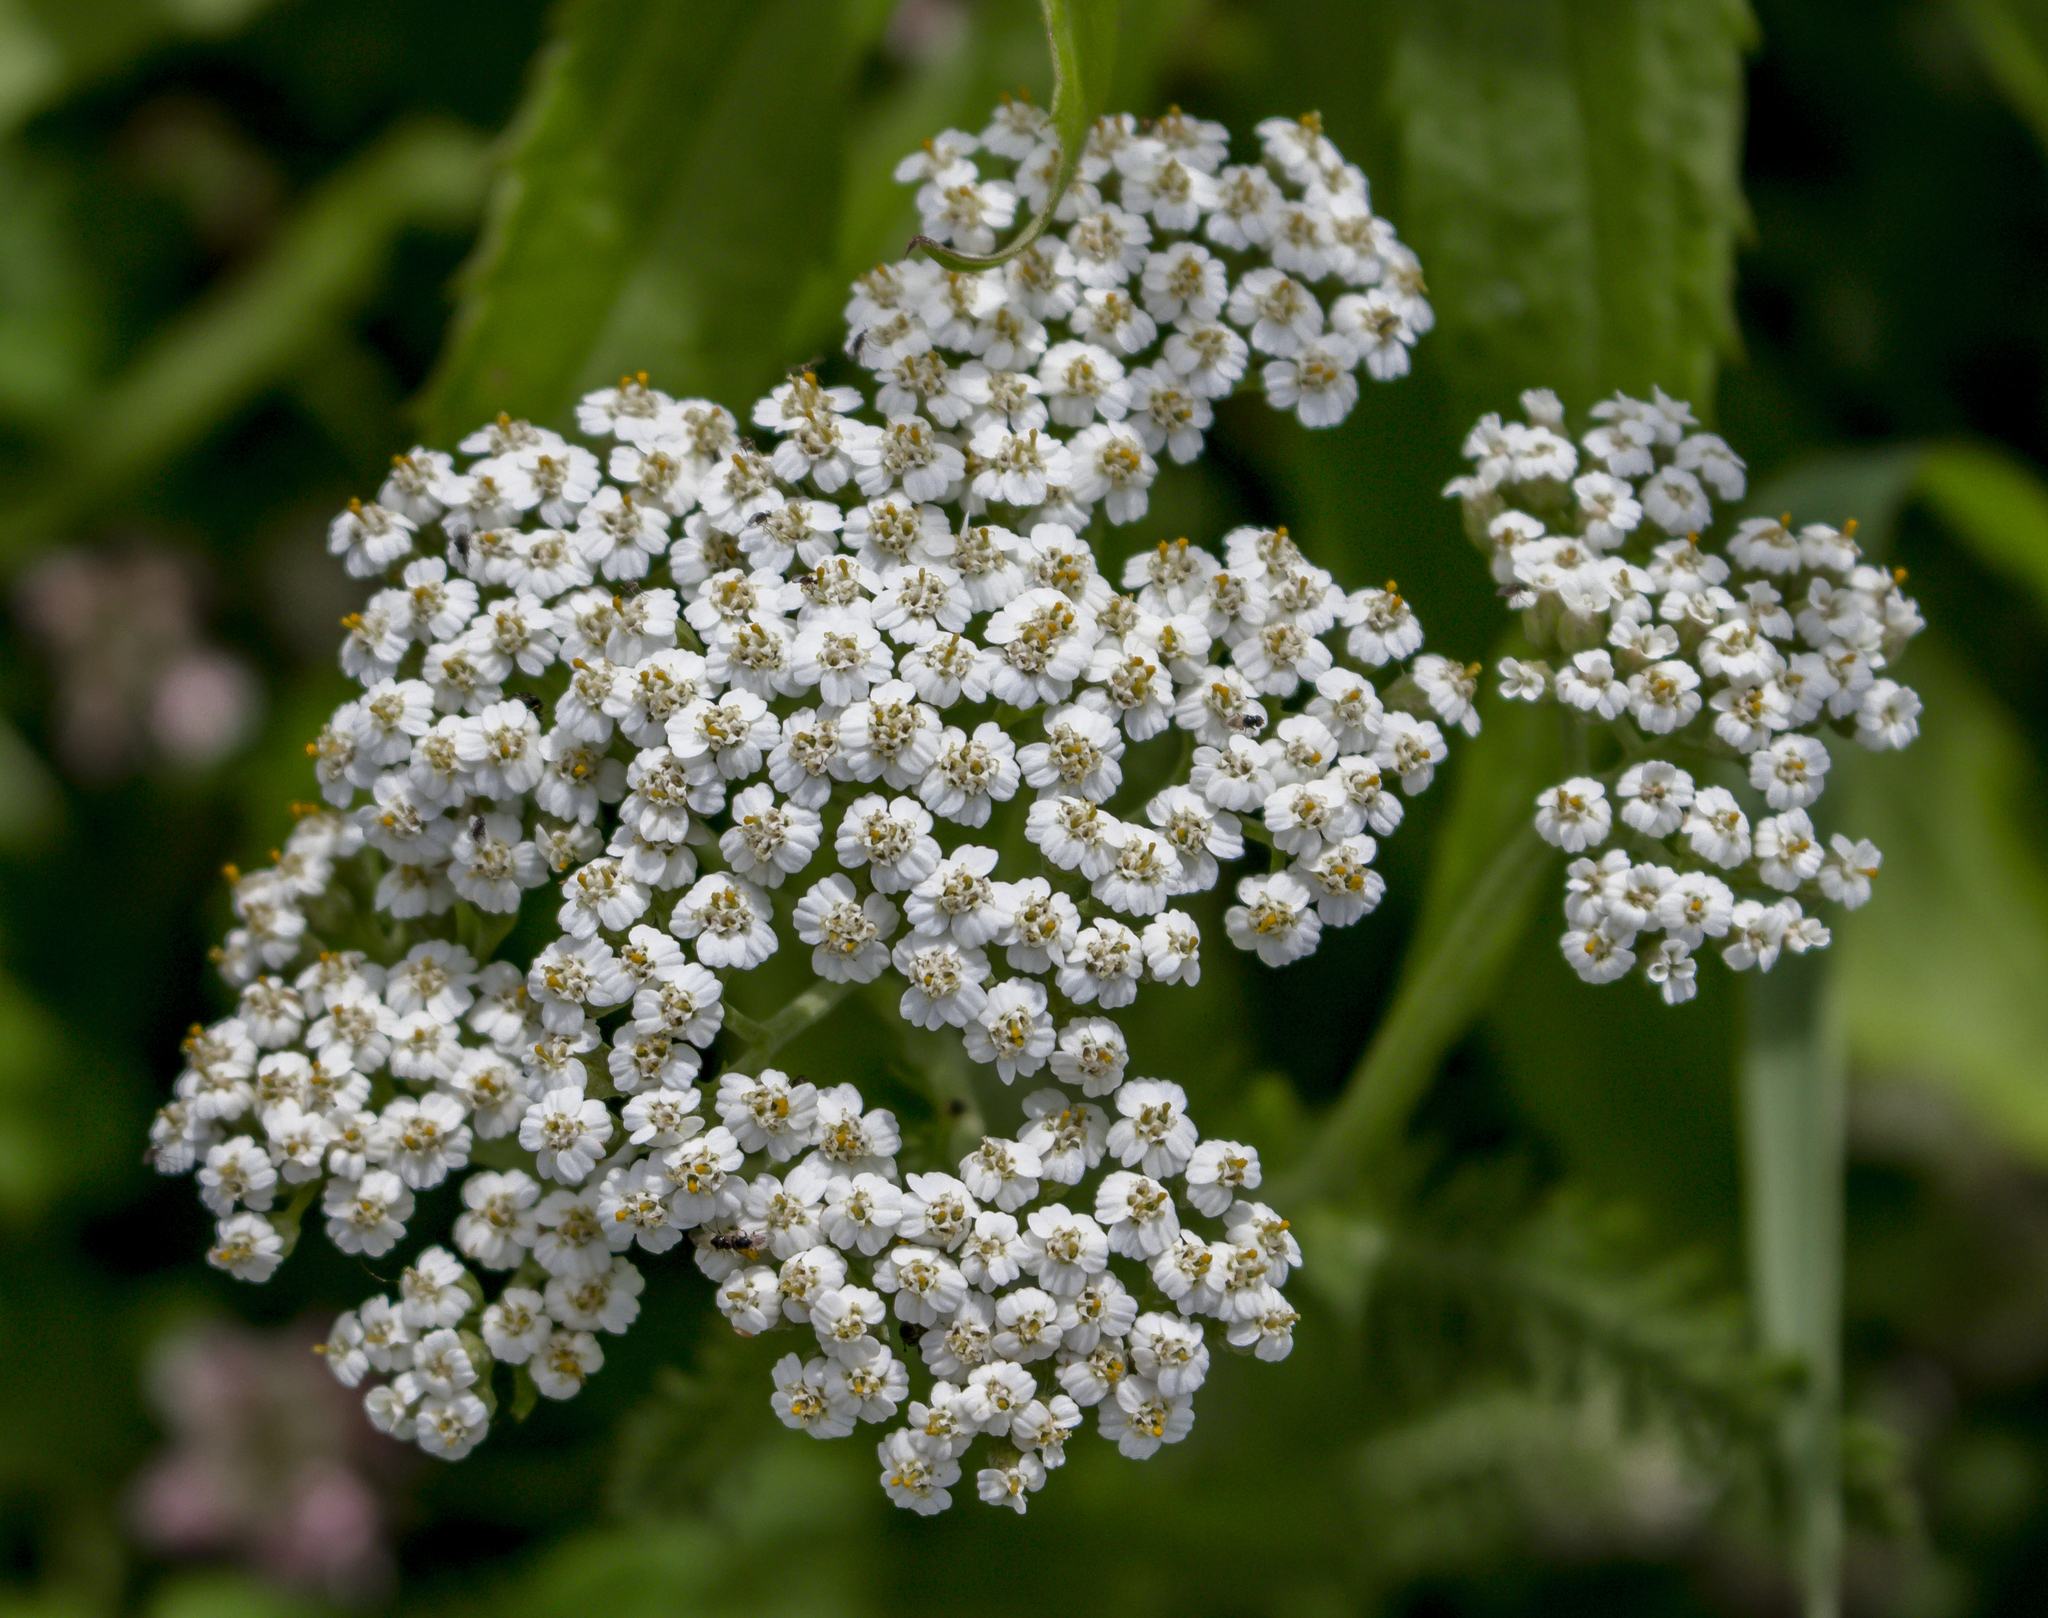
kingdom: Plantae
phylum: Tracheophyta
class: Magnoliopsida
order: Asterales
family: Asteraceae
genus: Achillea
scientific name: Achillea millefolium
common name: Yarrow
